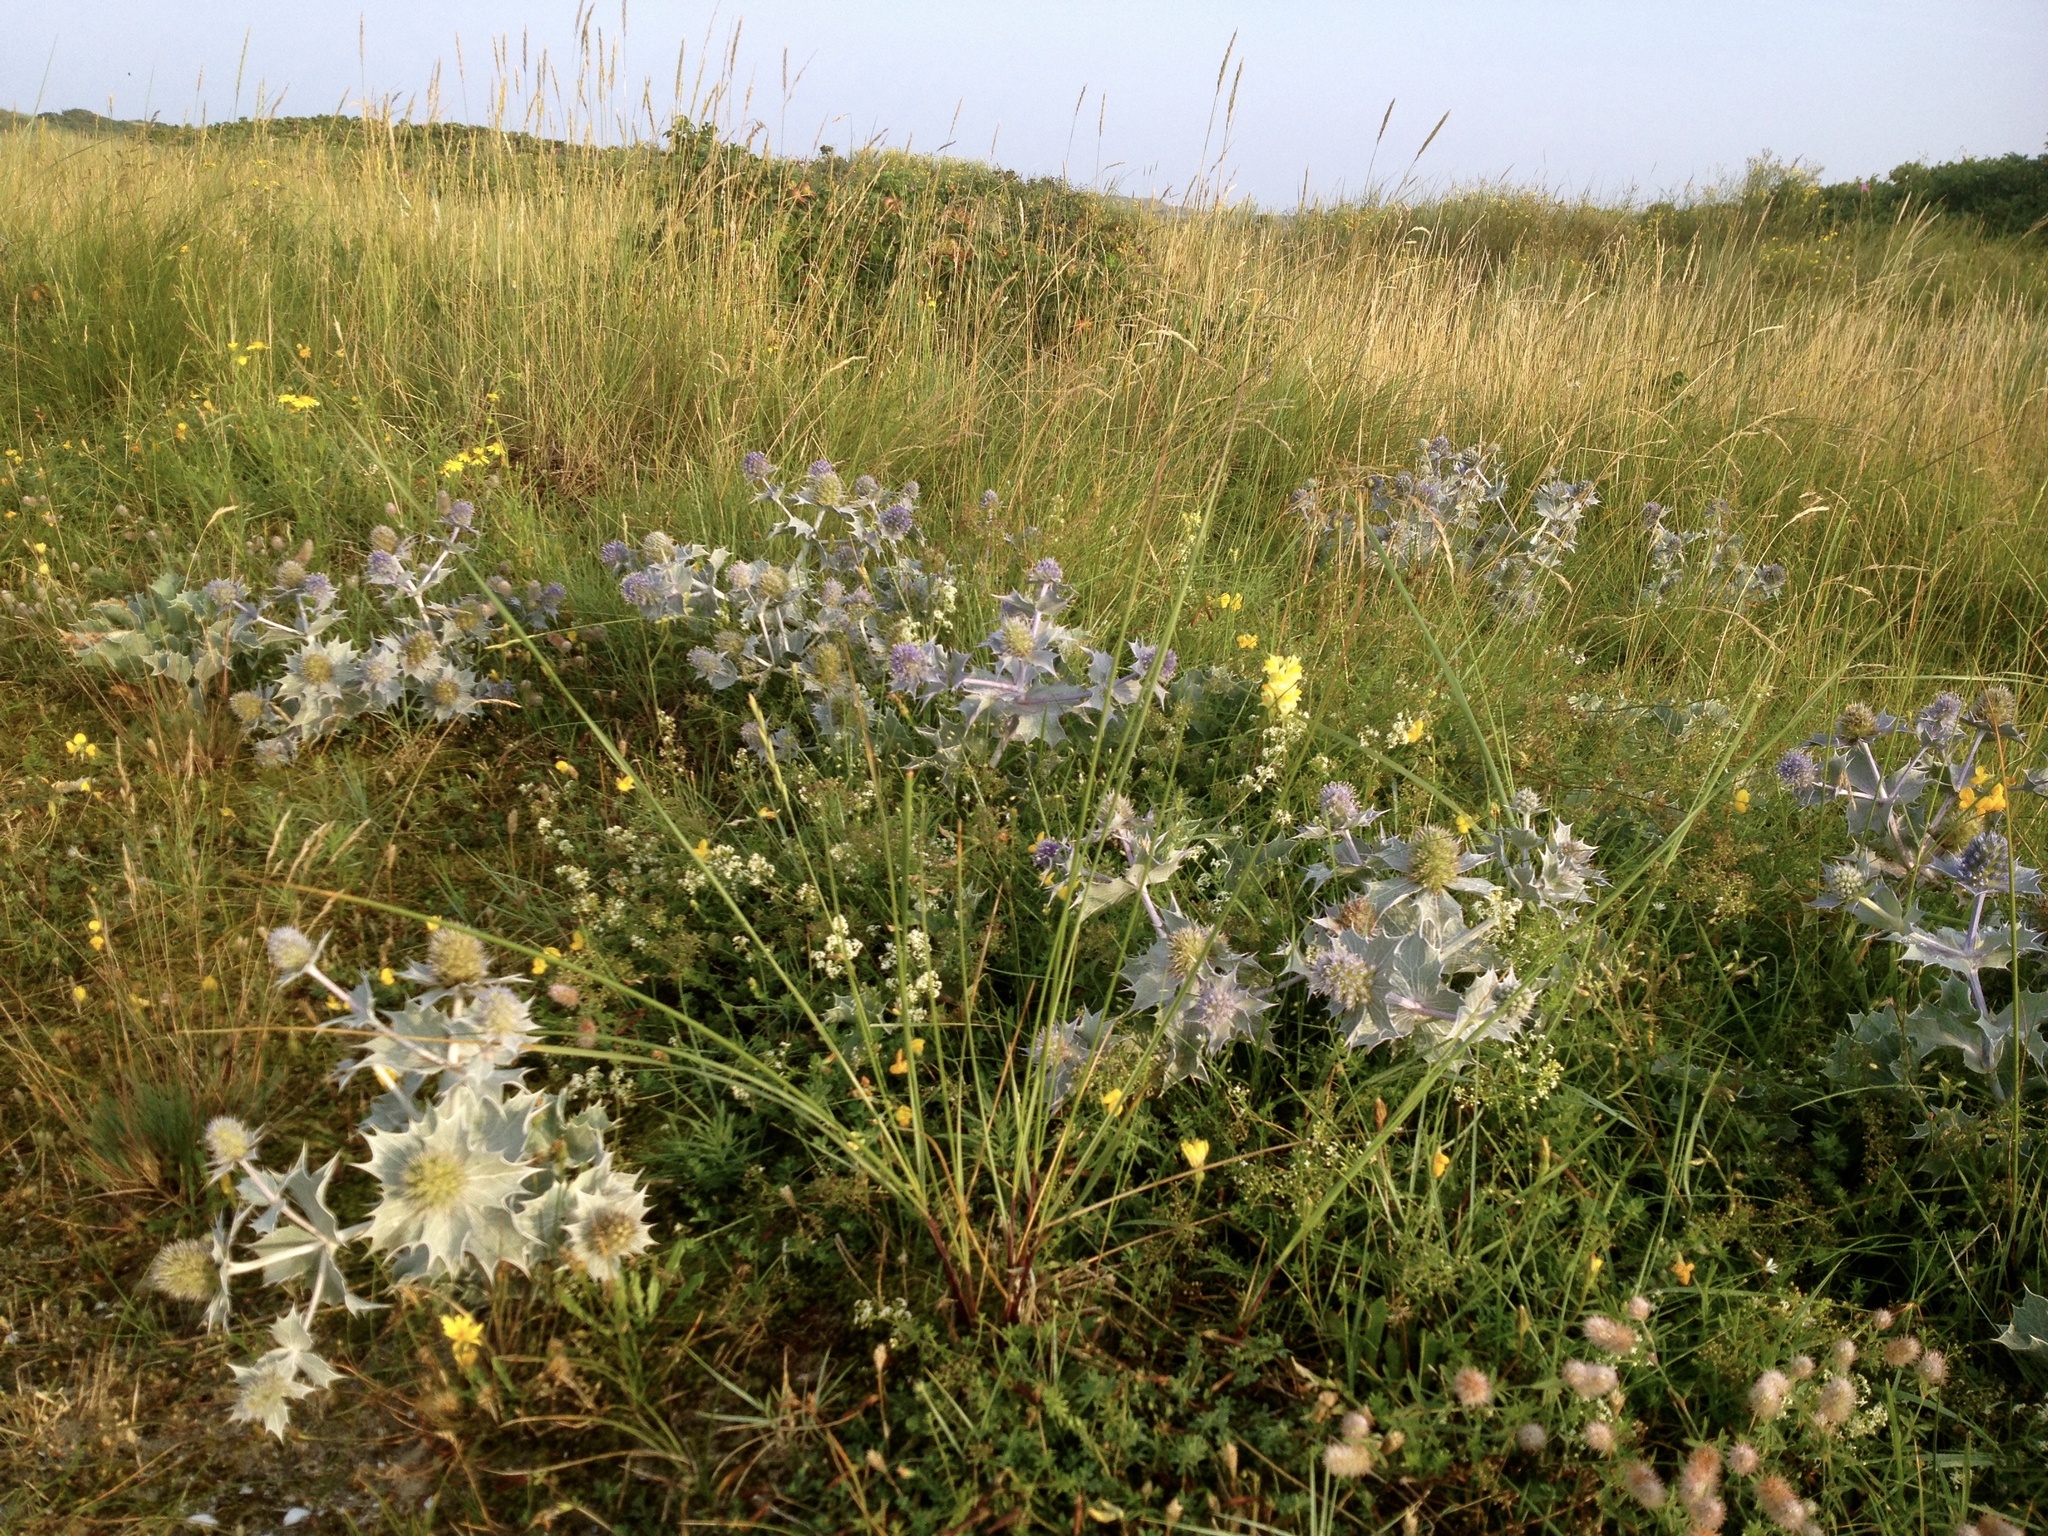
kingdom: Plantae
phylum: Tracheophyta
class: Magnoliopsida
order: Apiales
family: Apiaceae
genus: Eryngium
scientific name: Eryngium maritimum
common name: Sea-holly
